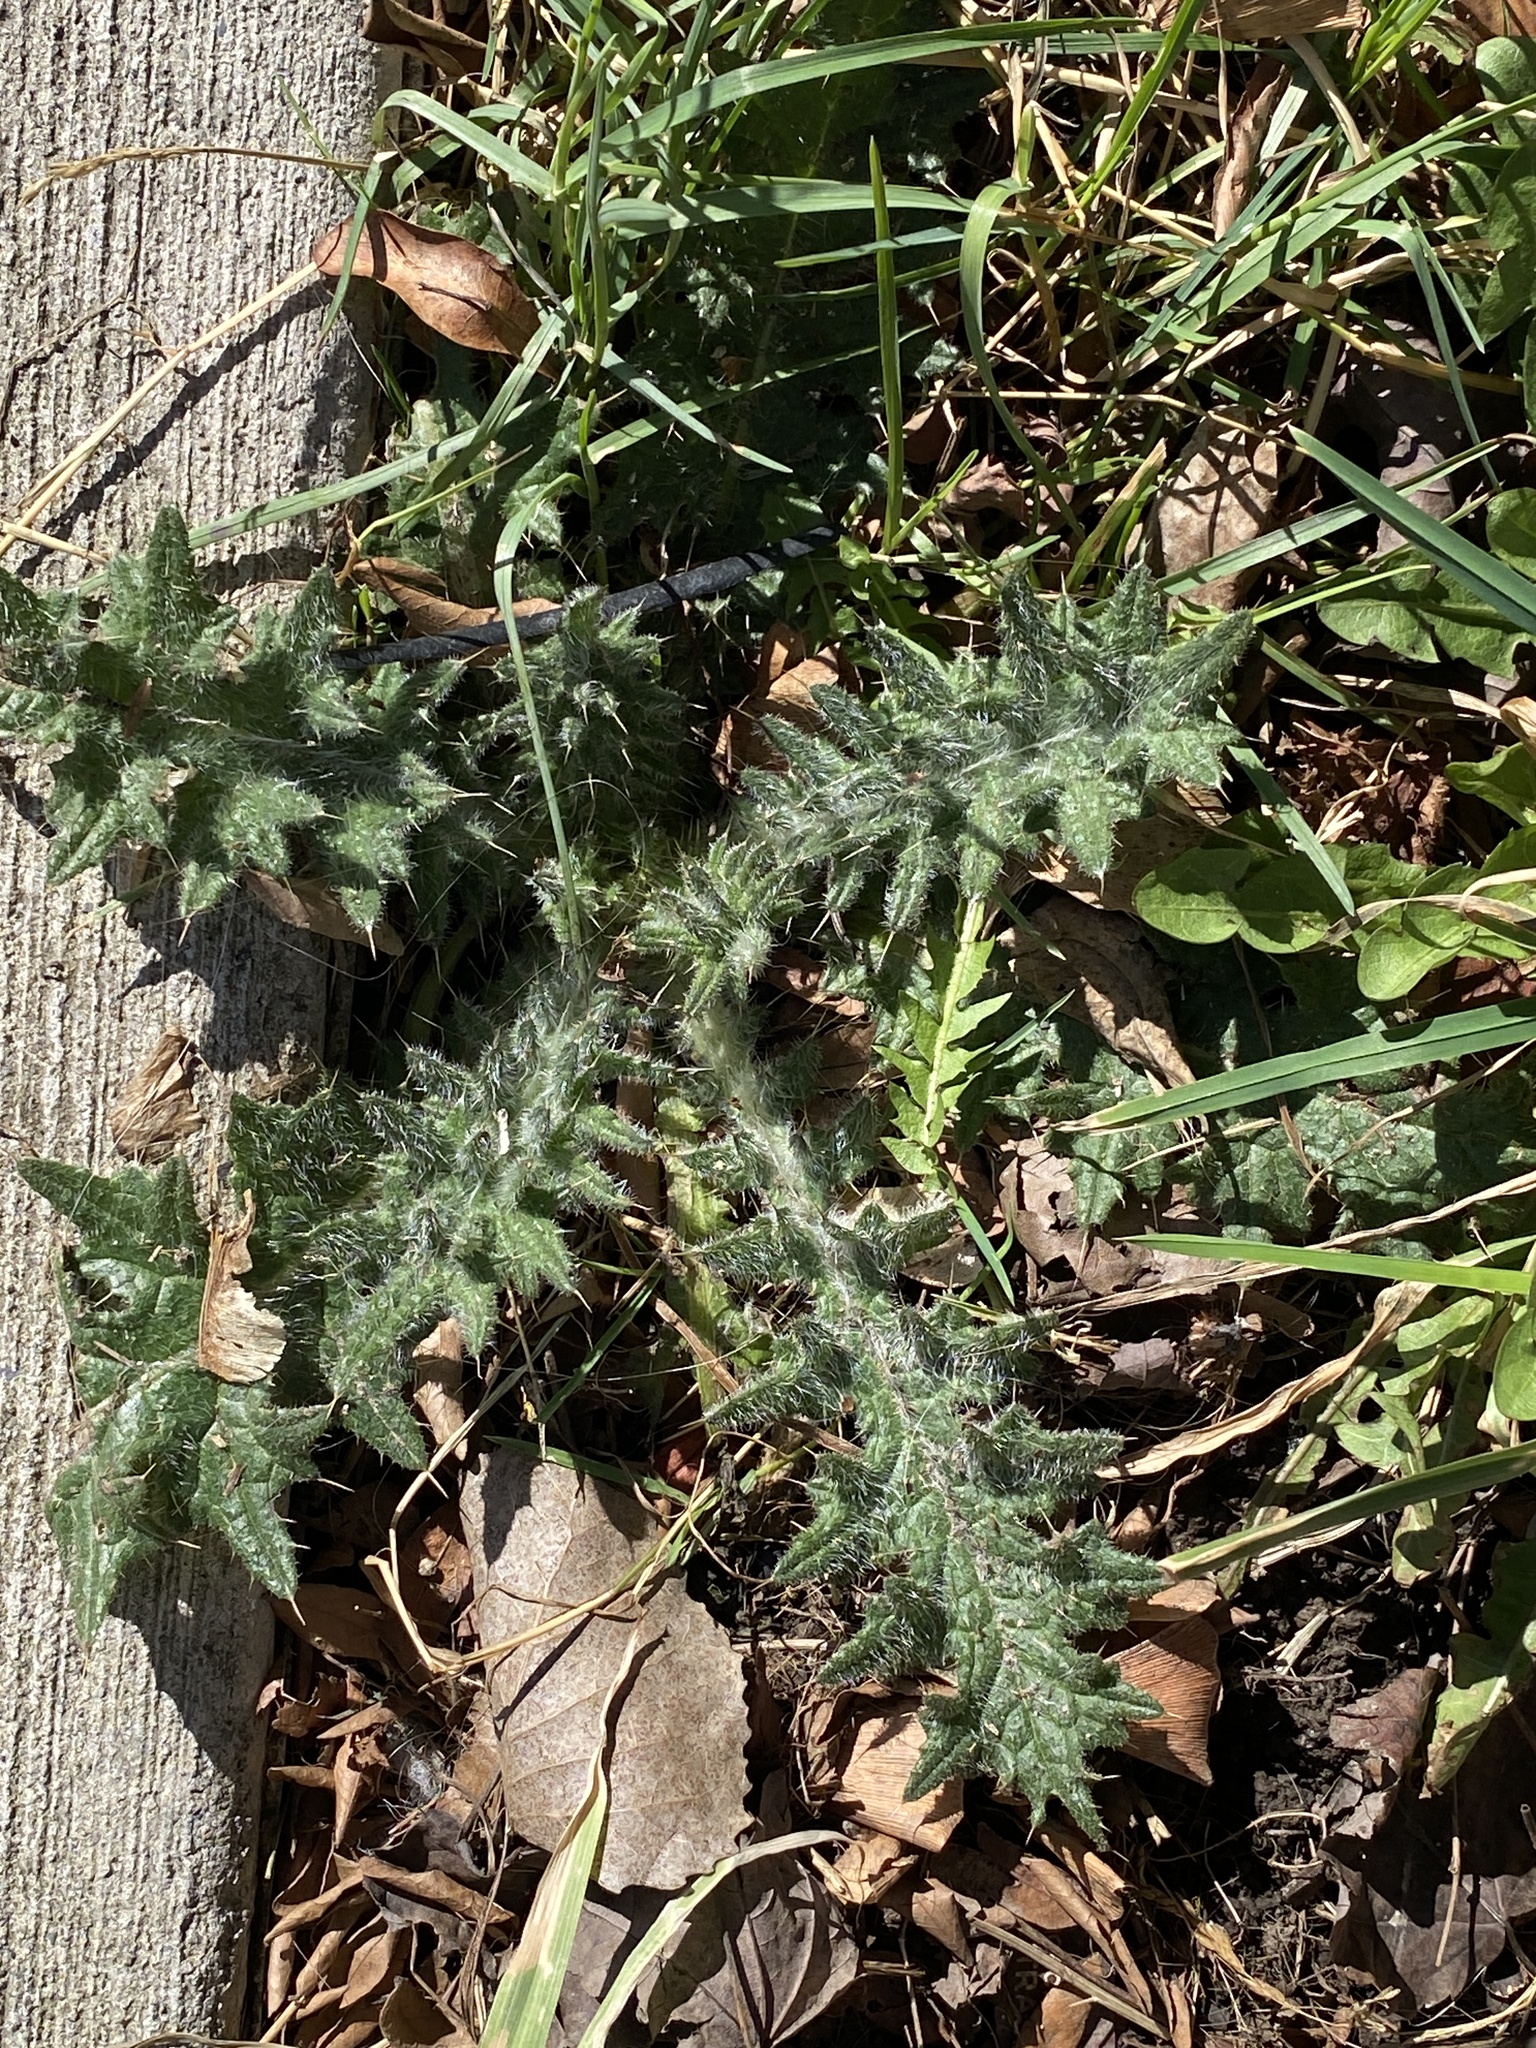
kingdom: Plantae
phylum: Tracheophyta
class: Magnoliopsida
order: Asterales
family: Asteraceae
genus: Cirsium
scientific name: Cirsium vulgare
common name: Bull thistle
